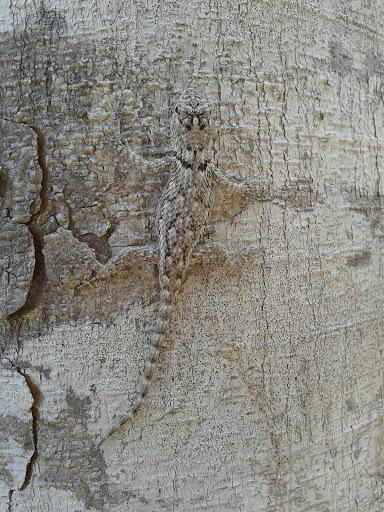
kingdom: Animalia
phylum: Chordata
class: Squamata
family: Phrynosomatidae
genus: Sceloporus
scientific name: Sceloporus lundelli
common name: Lundell's spiny lizard
